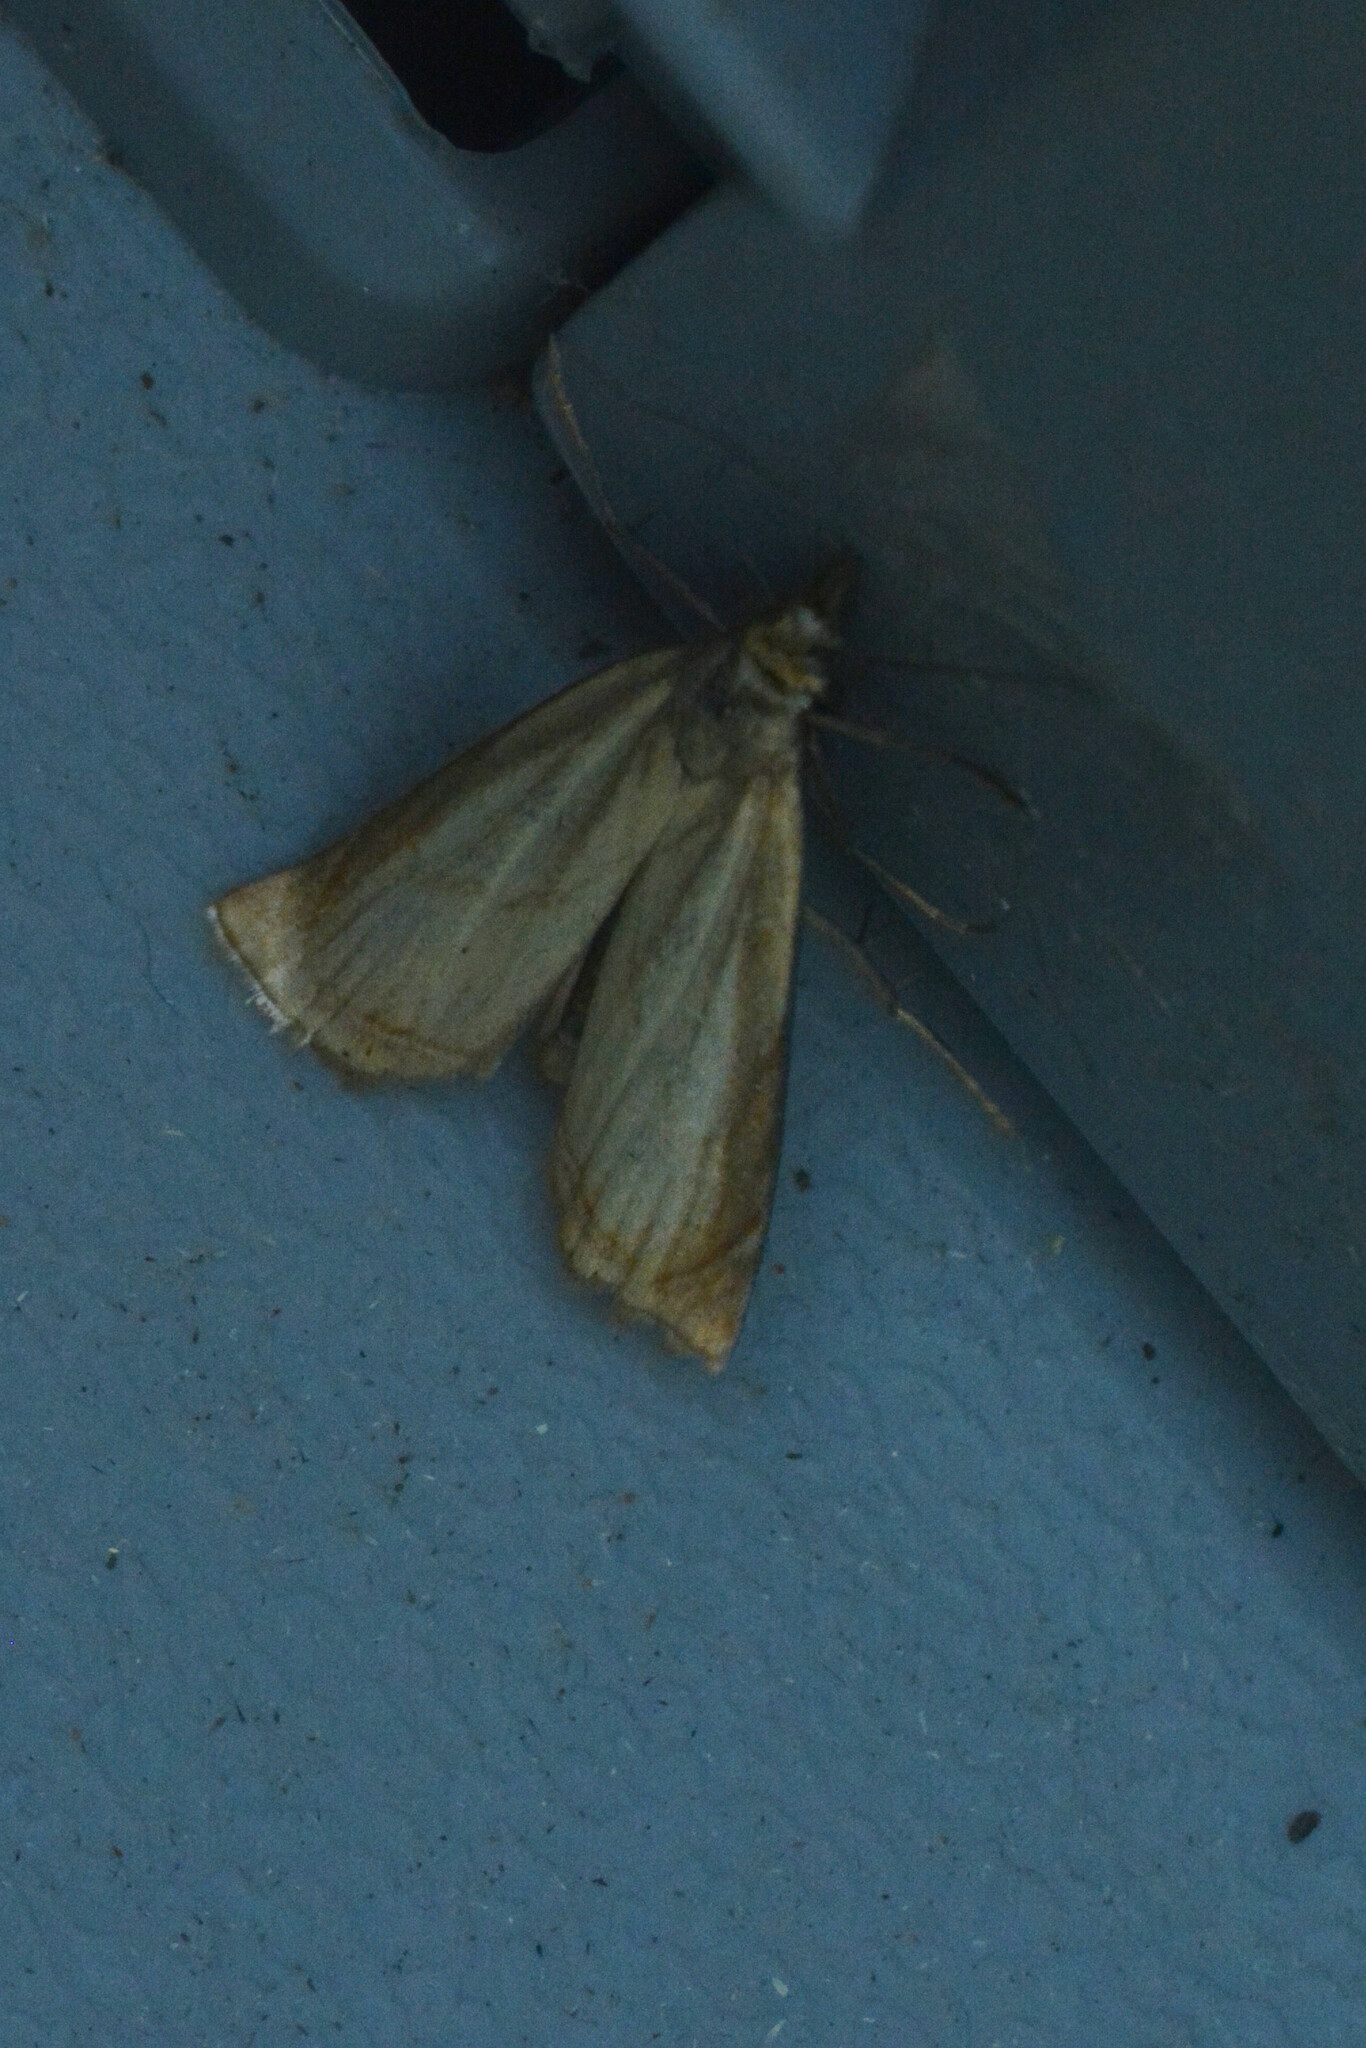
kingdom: Animalia
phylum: Arthropoda
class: Insecta
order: Lepidoptera
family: Crambidae
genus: Chrysoteuchia
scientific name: Chrysoteuchia culmella
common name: Garden grass-veneer
